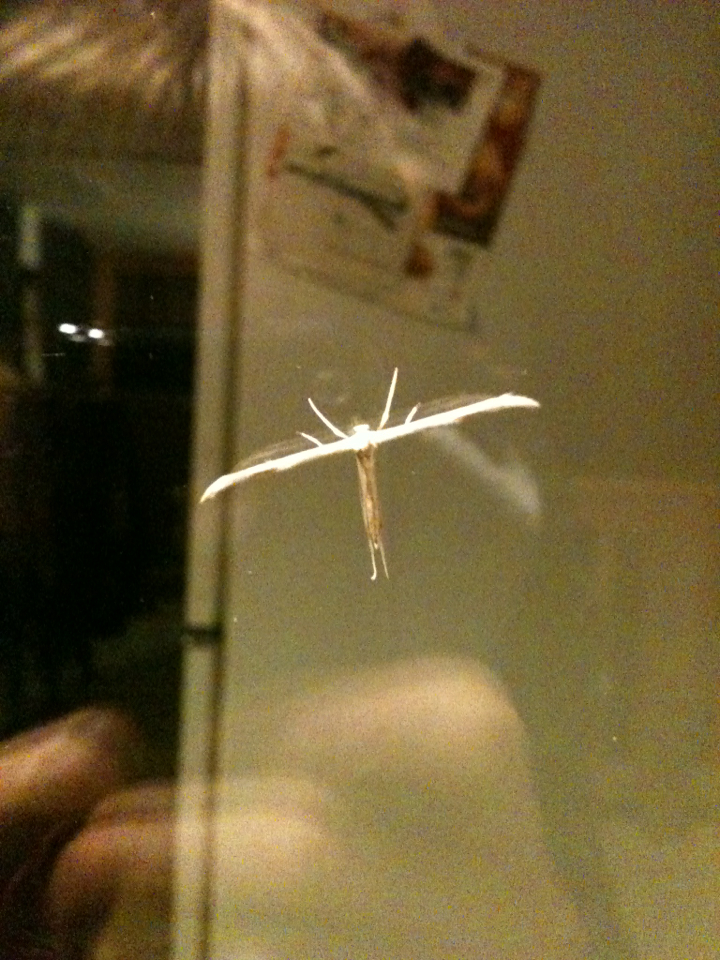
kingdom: Animalia
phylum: Arthropoda
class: Insecta
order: Lepidoptera
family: Pterophoridae
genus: Emmelina
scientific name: Emmelina monodactyla
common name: Common plume
